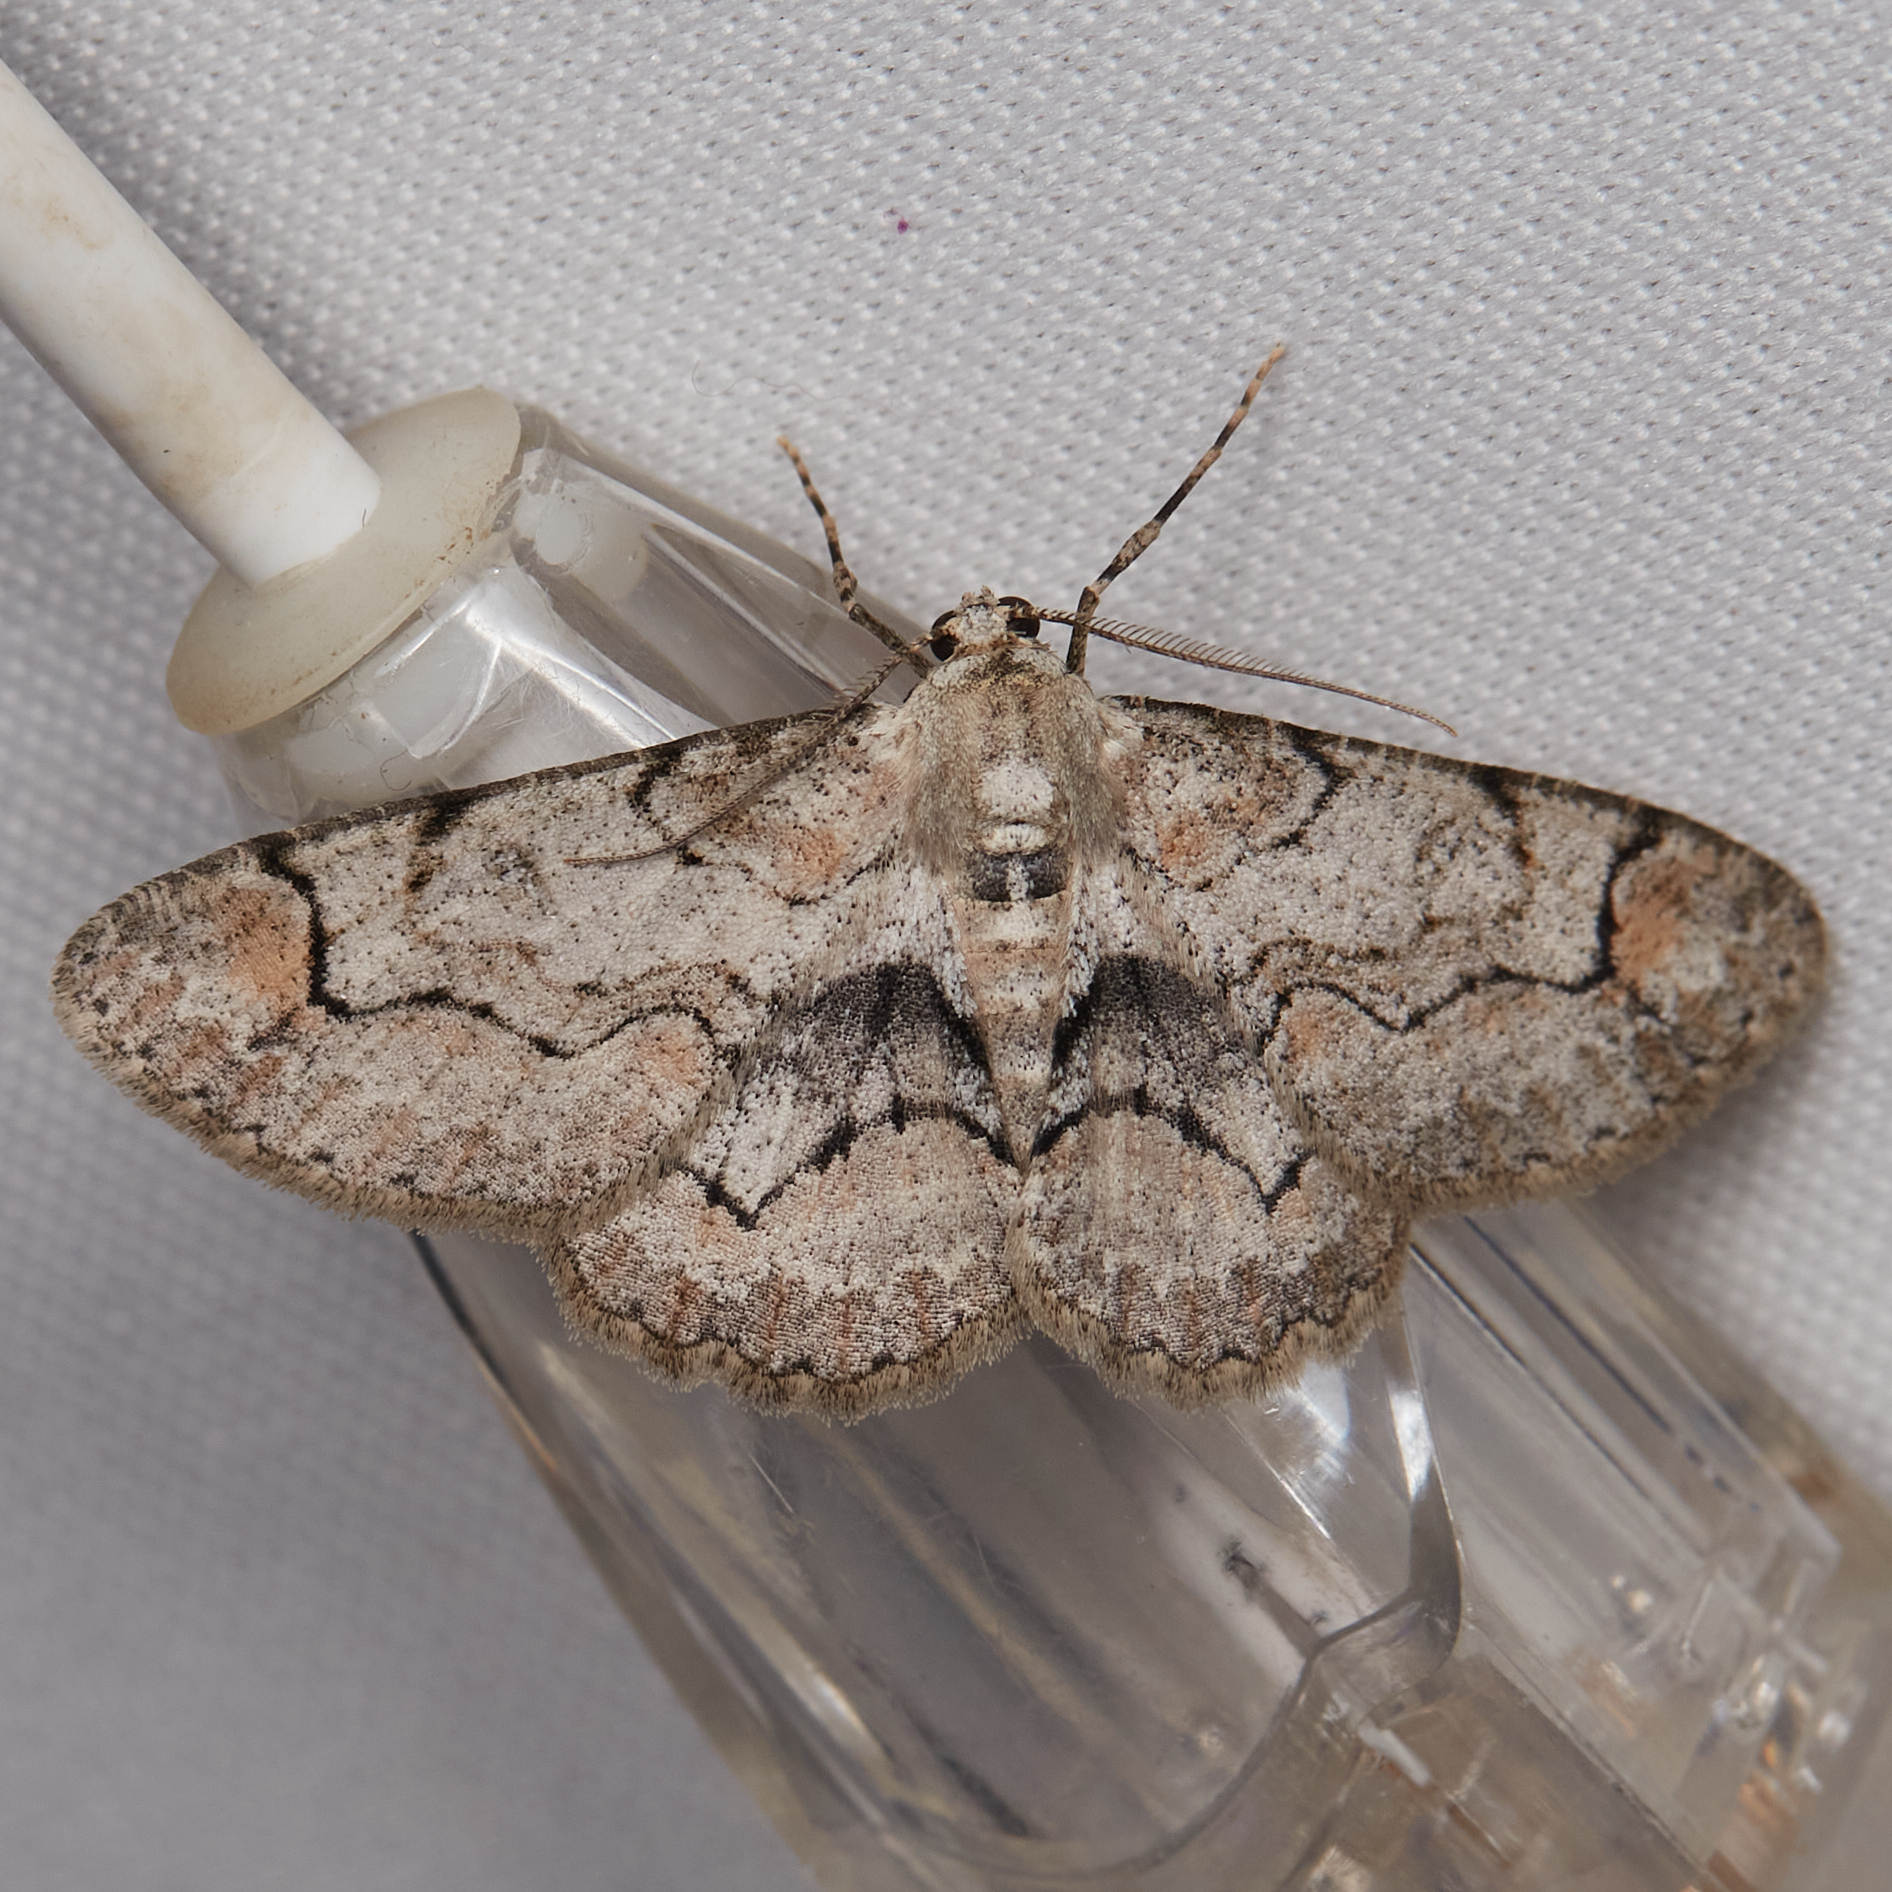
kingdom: Animalia
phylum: Arthropoda
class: Insecta
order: Lepidoptera
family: Geometridae
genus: Iridopsis
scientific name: Iridopsis larvaria
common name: Bent-line gray
